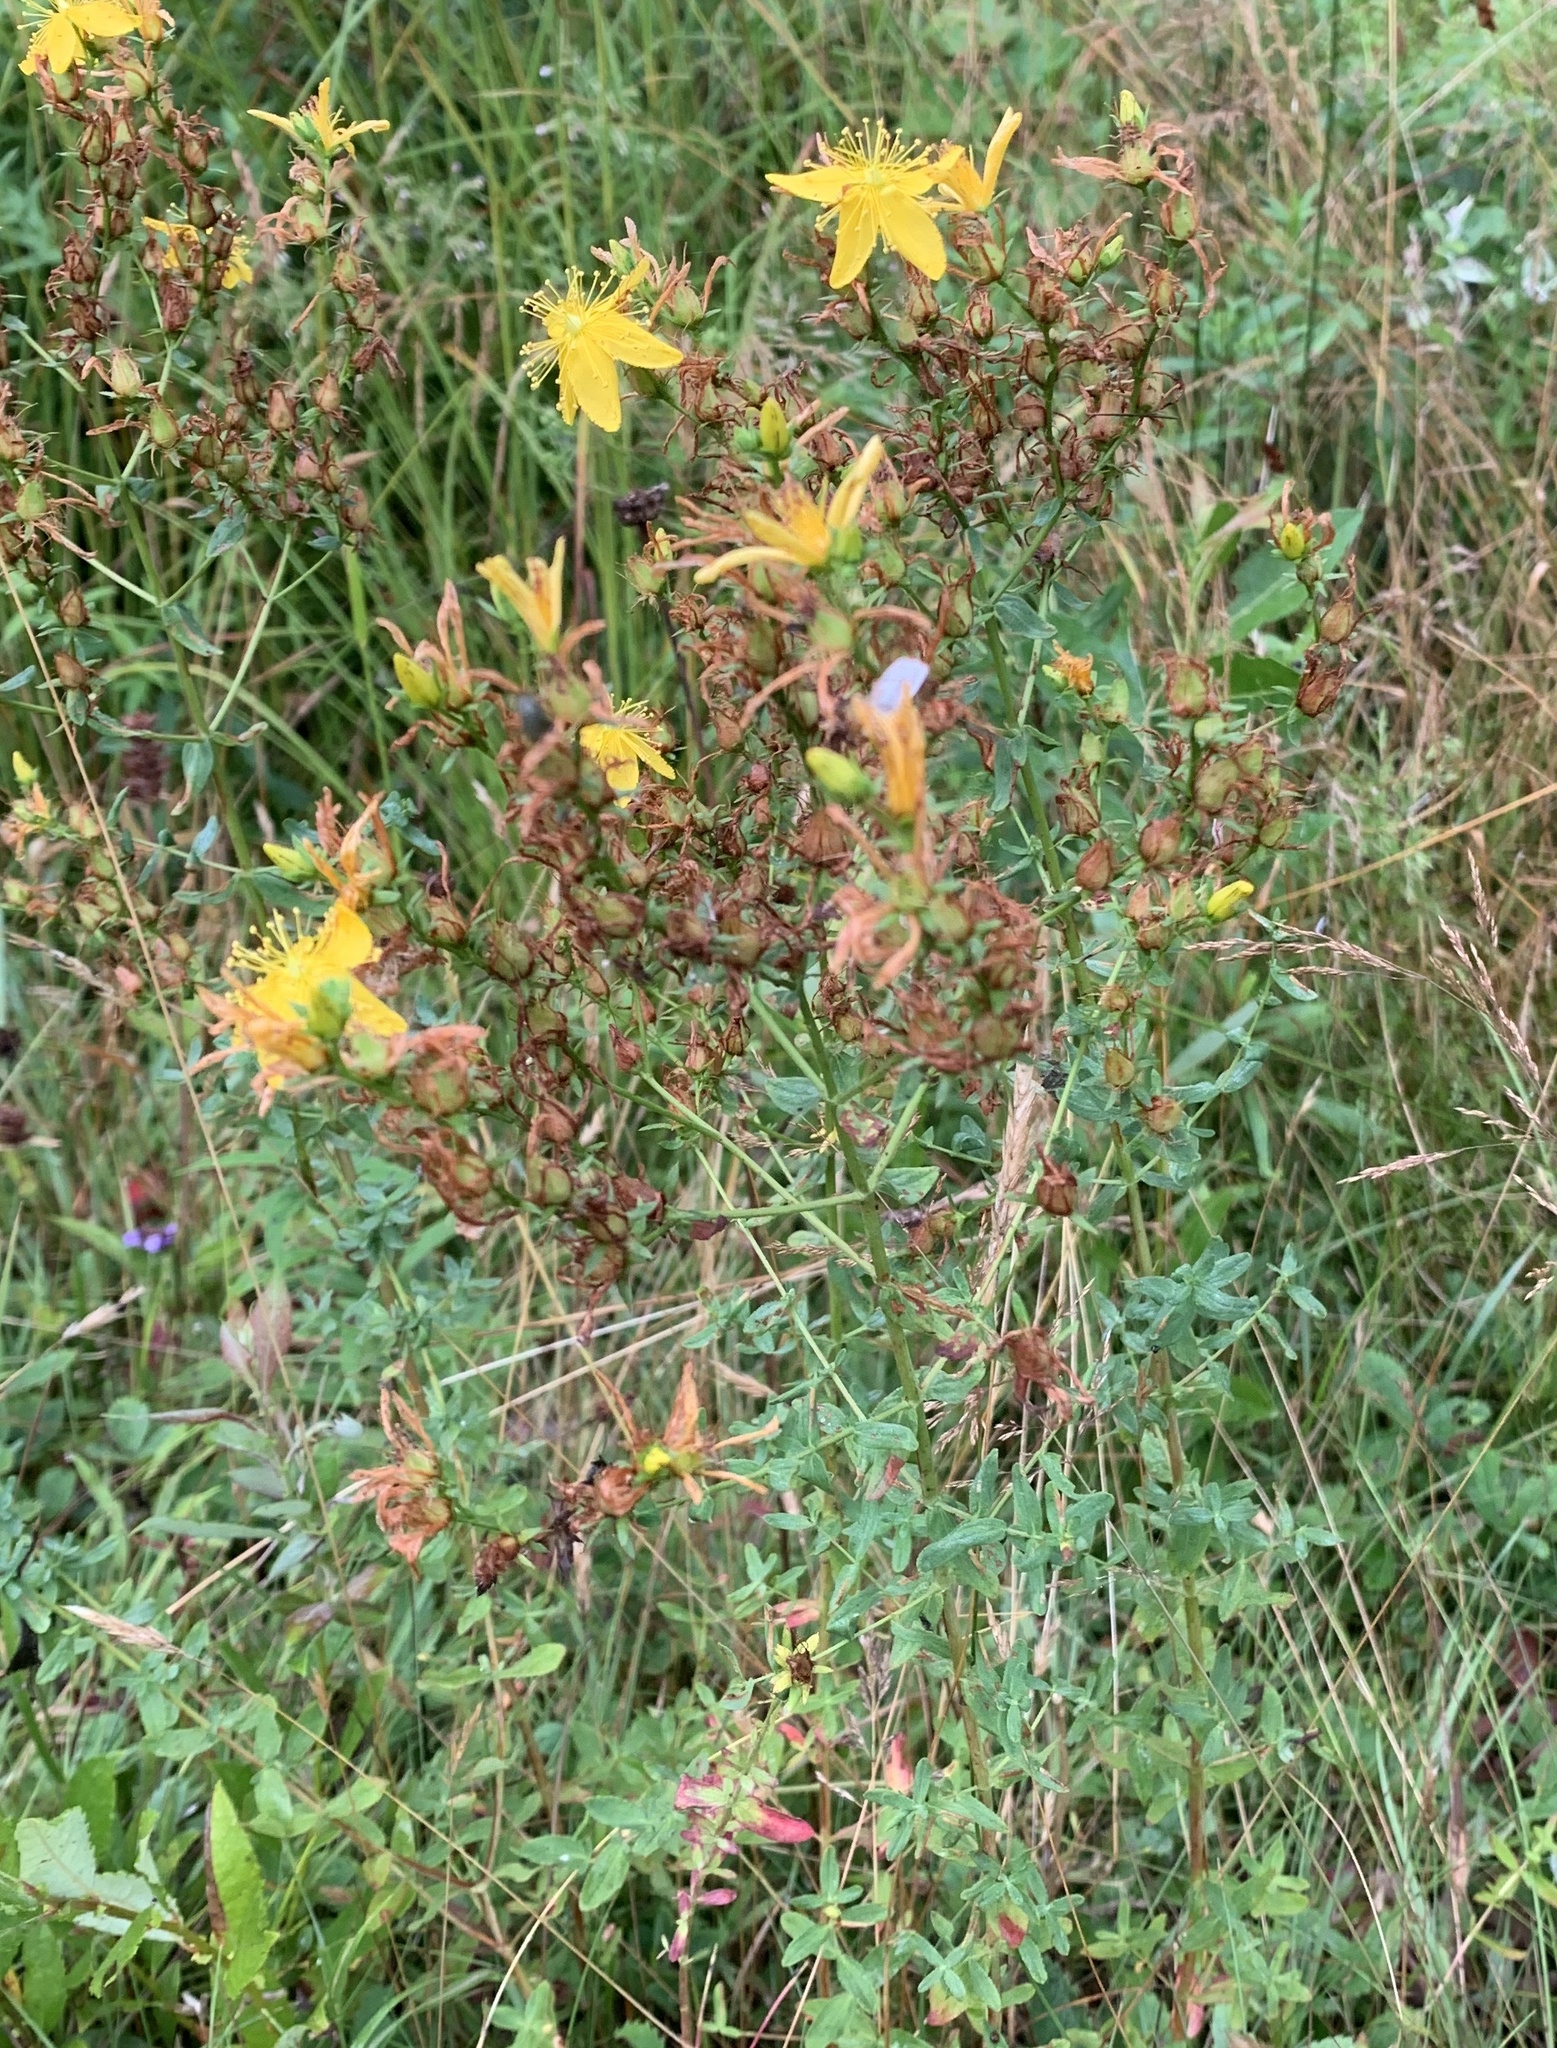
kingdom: Plantae
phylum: Tracheophyta
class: Magnoliopsida
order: Malpighiales
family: Hypericaceae
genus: Hypericum
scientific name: Hypericum perforatum
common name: Common st. johnswort
